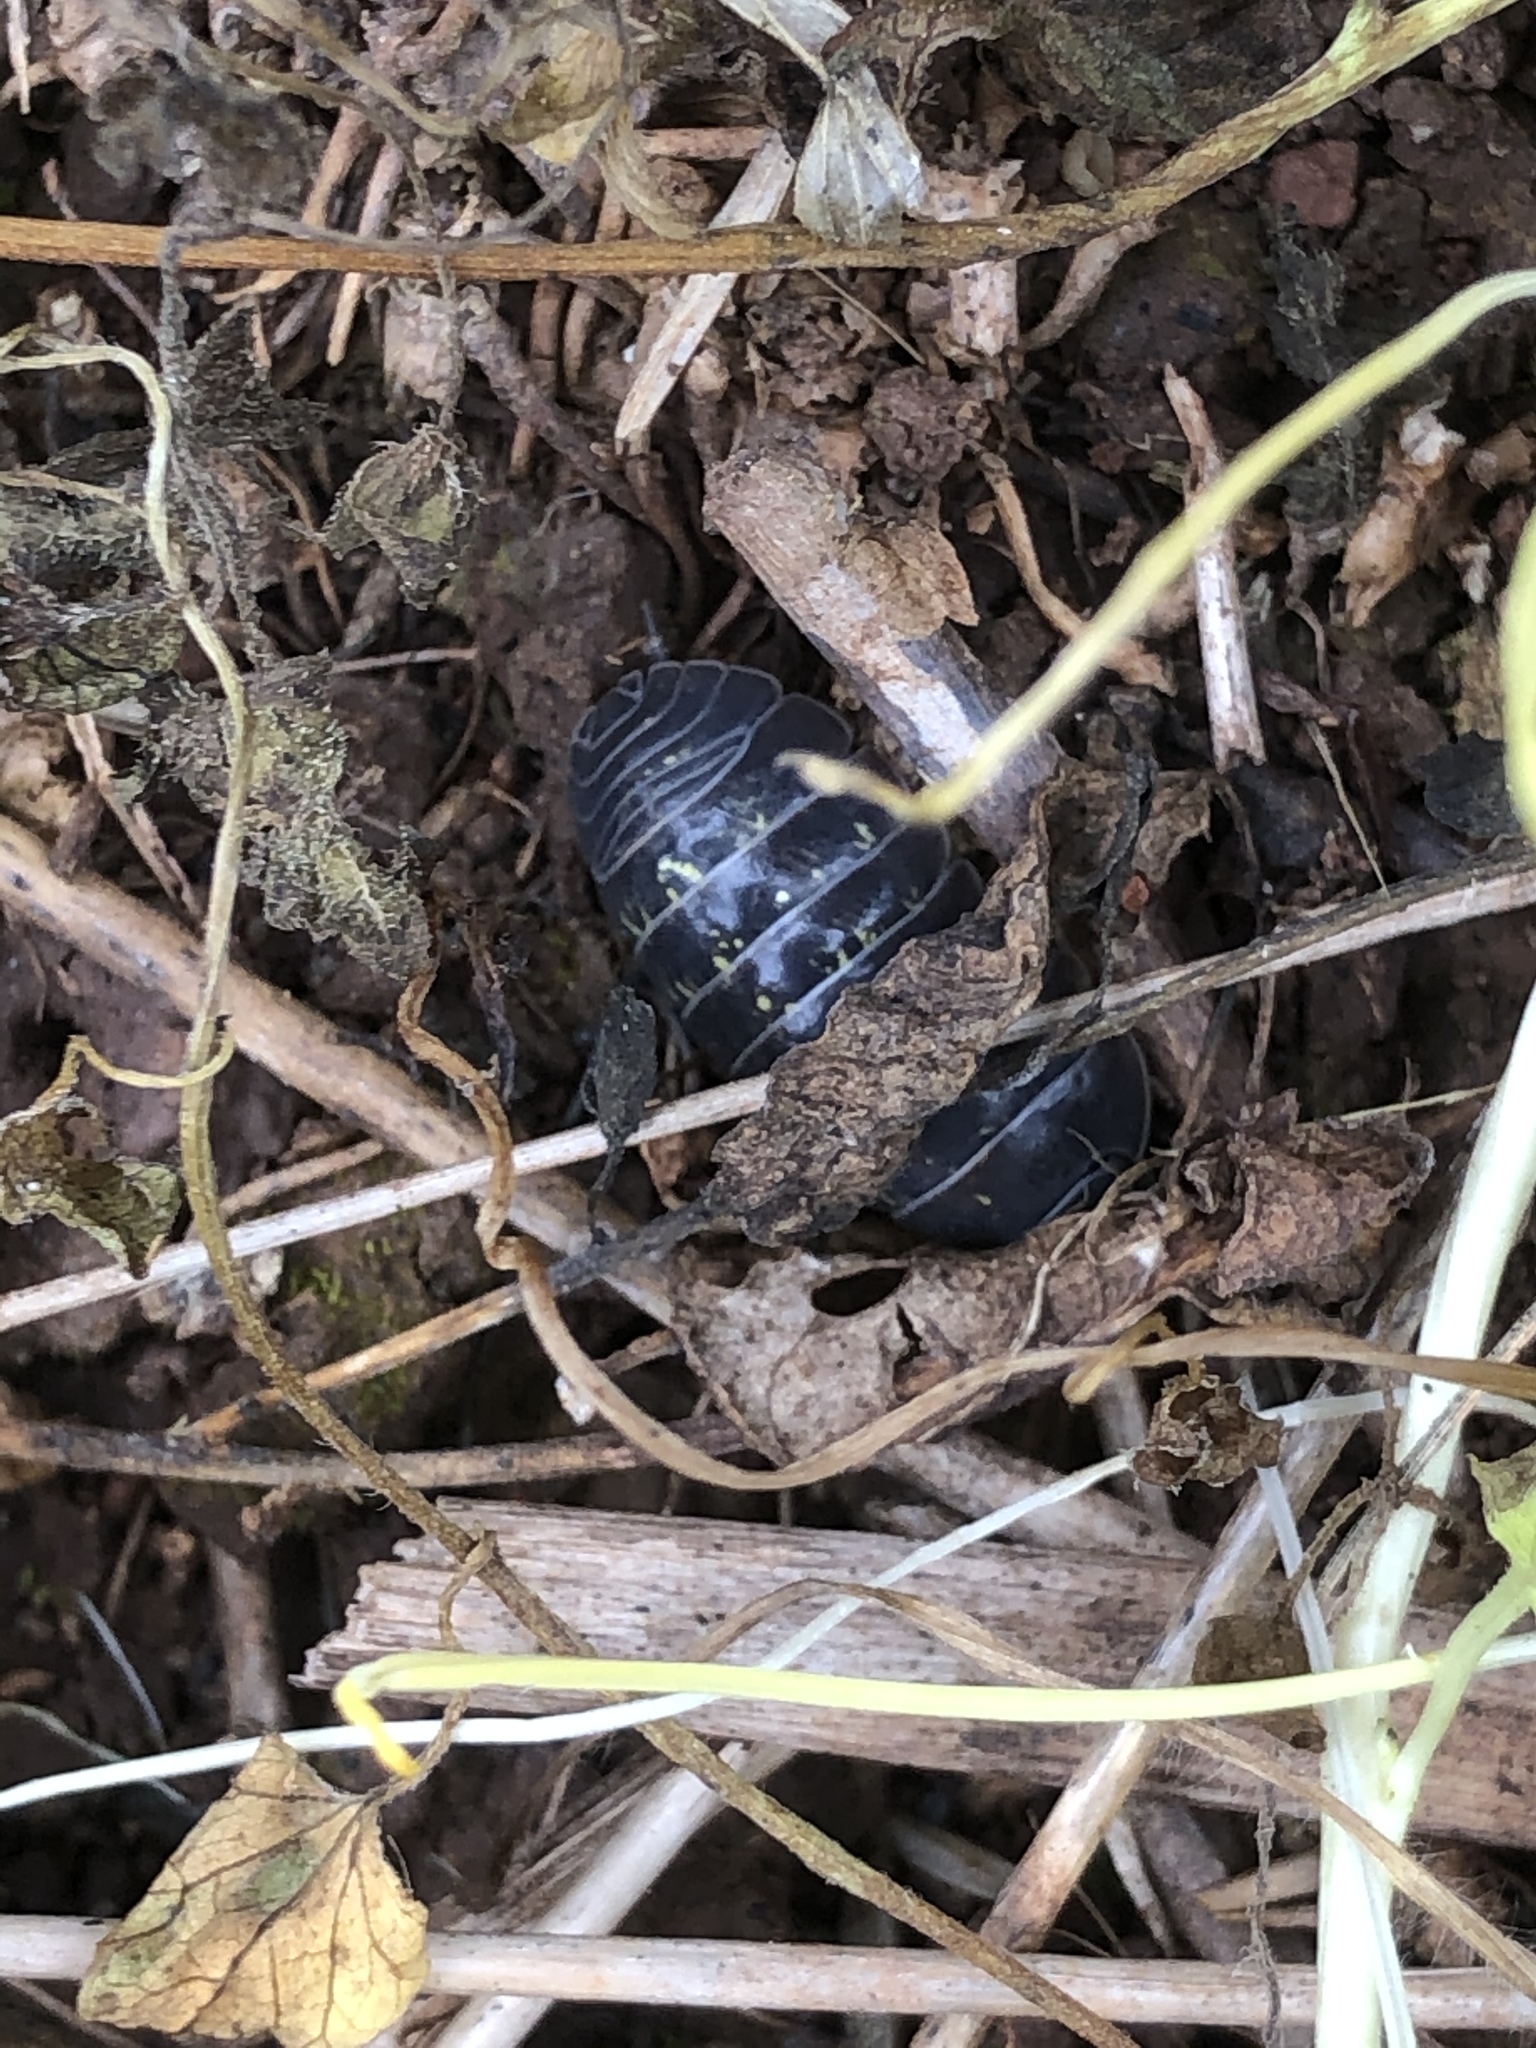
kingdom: Animalia
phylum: Arthropoda
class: Malacostraca
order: Isopoda
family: Armadillidiidae
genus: Armadillidium
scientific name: Armadillidium vulgare
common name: Common pill woodlouse
